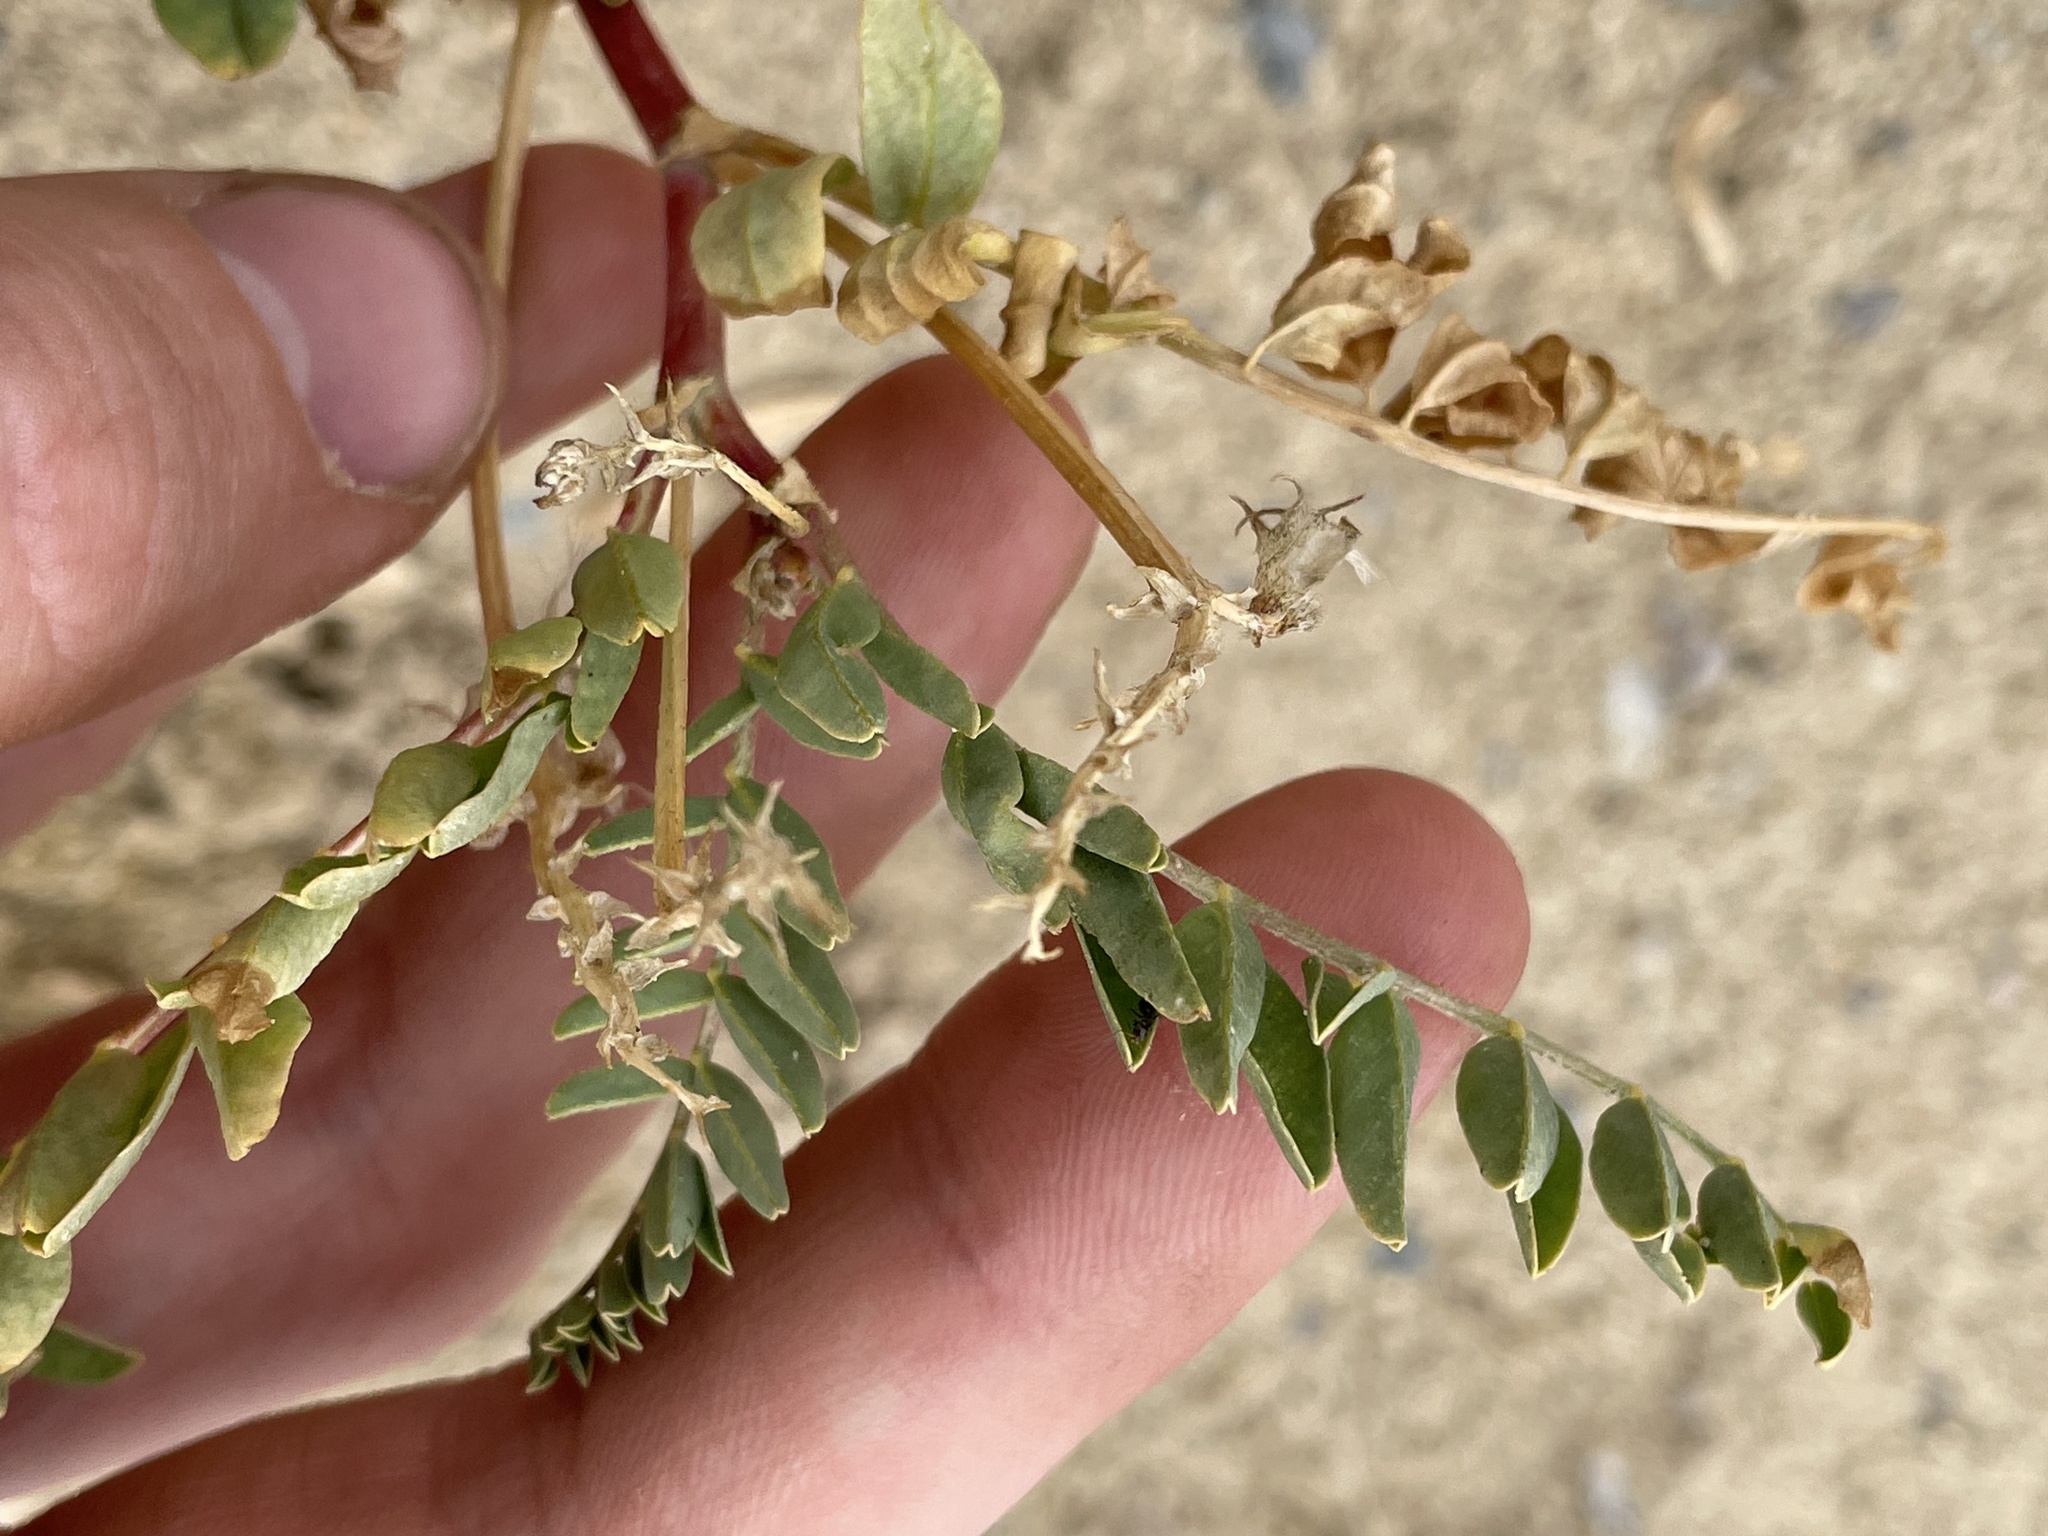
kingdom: Plantae
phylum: Tracheophyta
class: Magnoliopsida
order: Fabales
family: Fabaceae
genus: Astragalus
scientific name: Astragalus lentiginosus
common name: Freckled milkvetch
